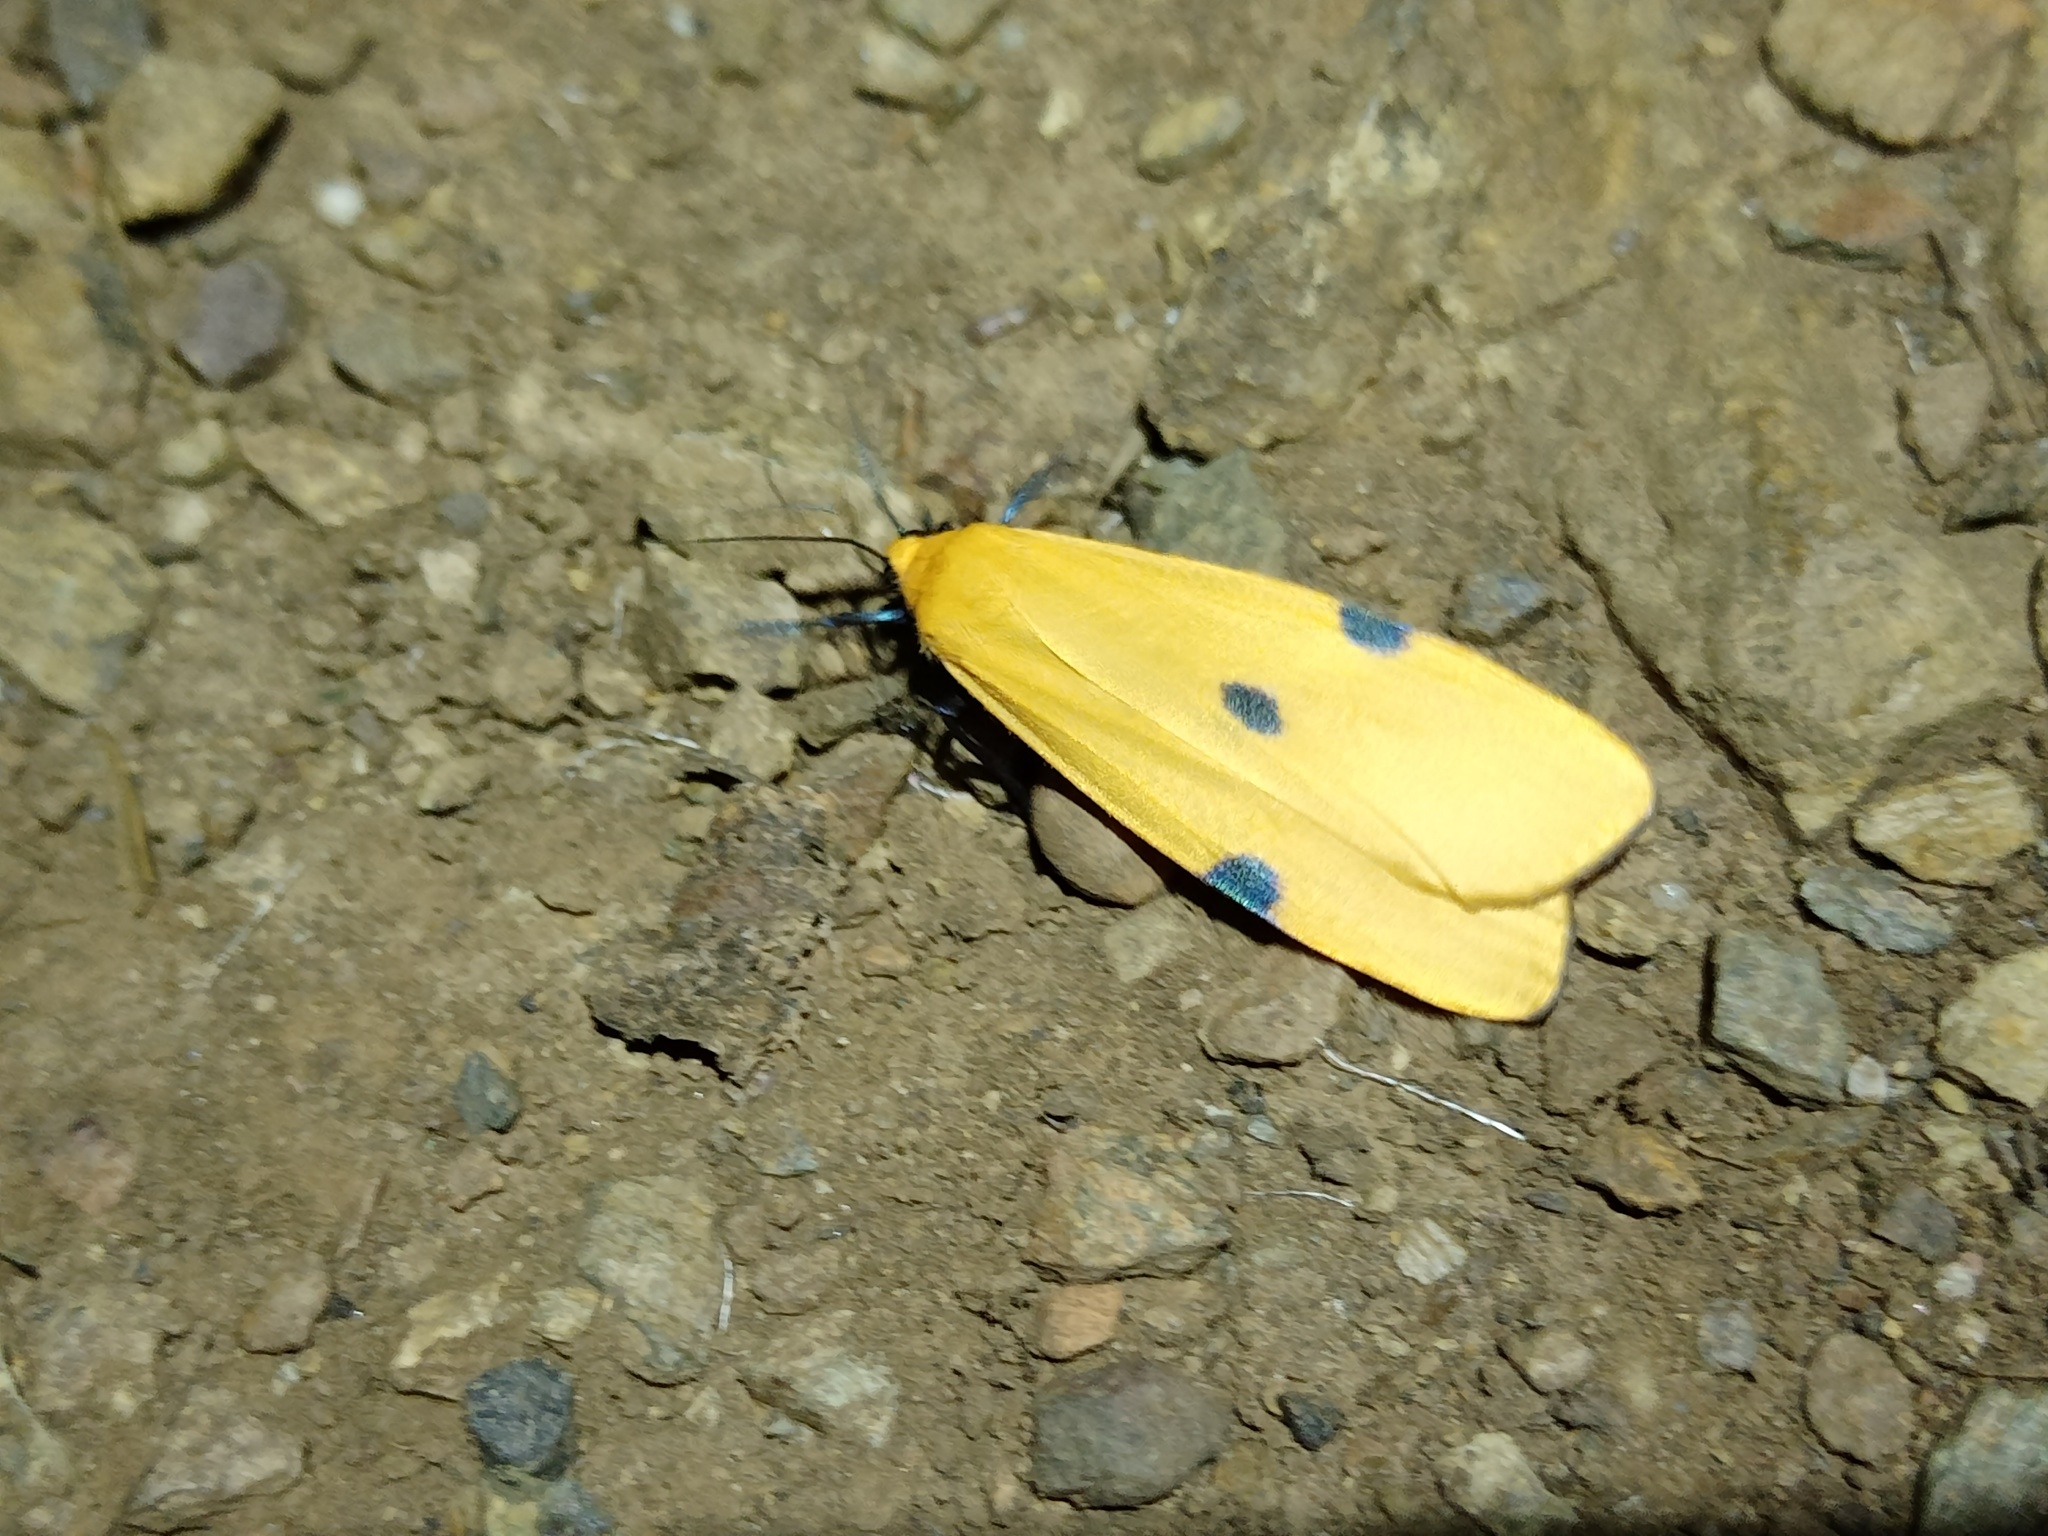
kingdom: Animalia
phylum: Arthropoda
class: Insecta
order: Lepidoptera
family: Erebidae
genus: Lithosia
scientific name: Lithosia quadra
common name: Four-spotted footman
